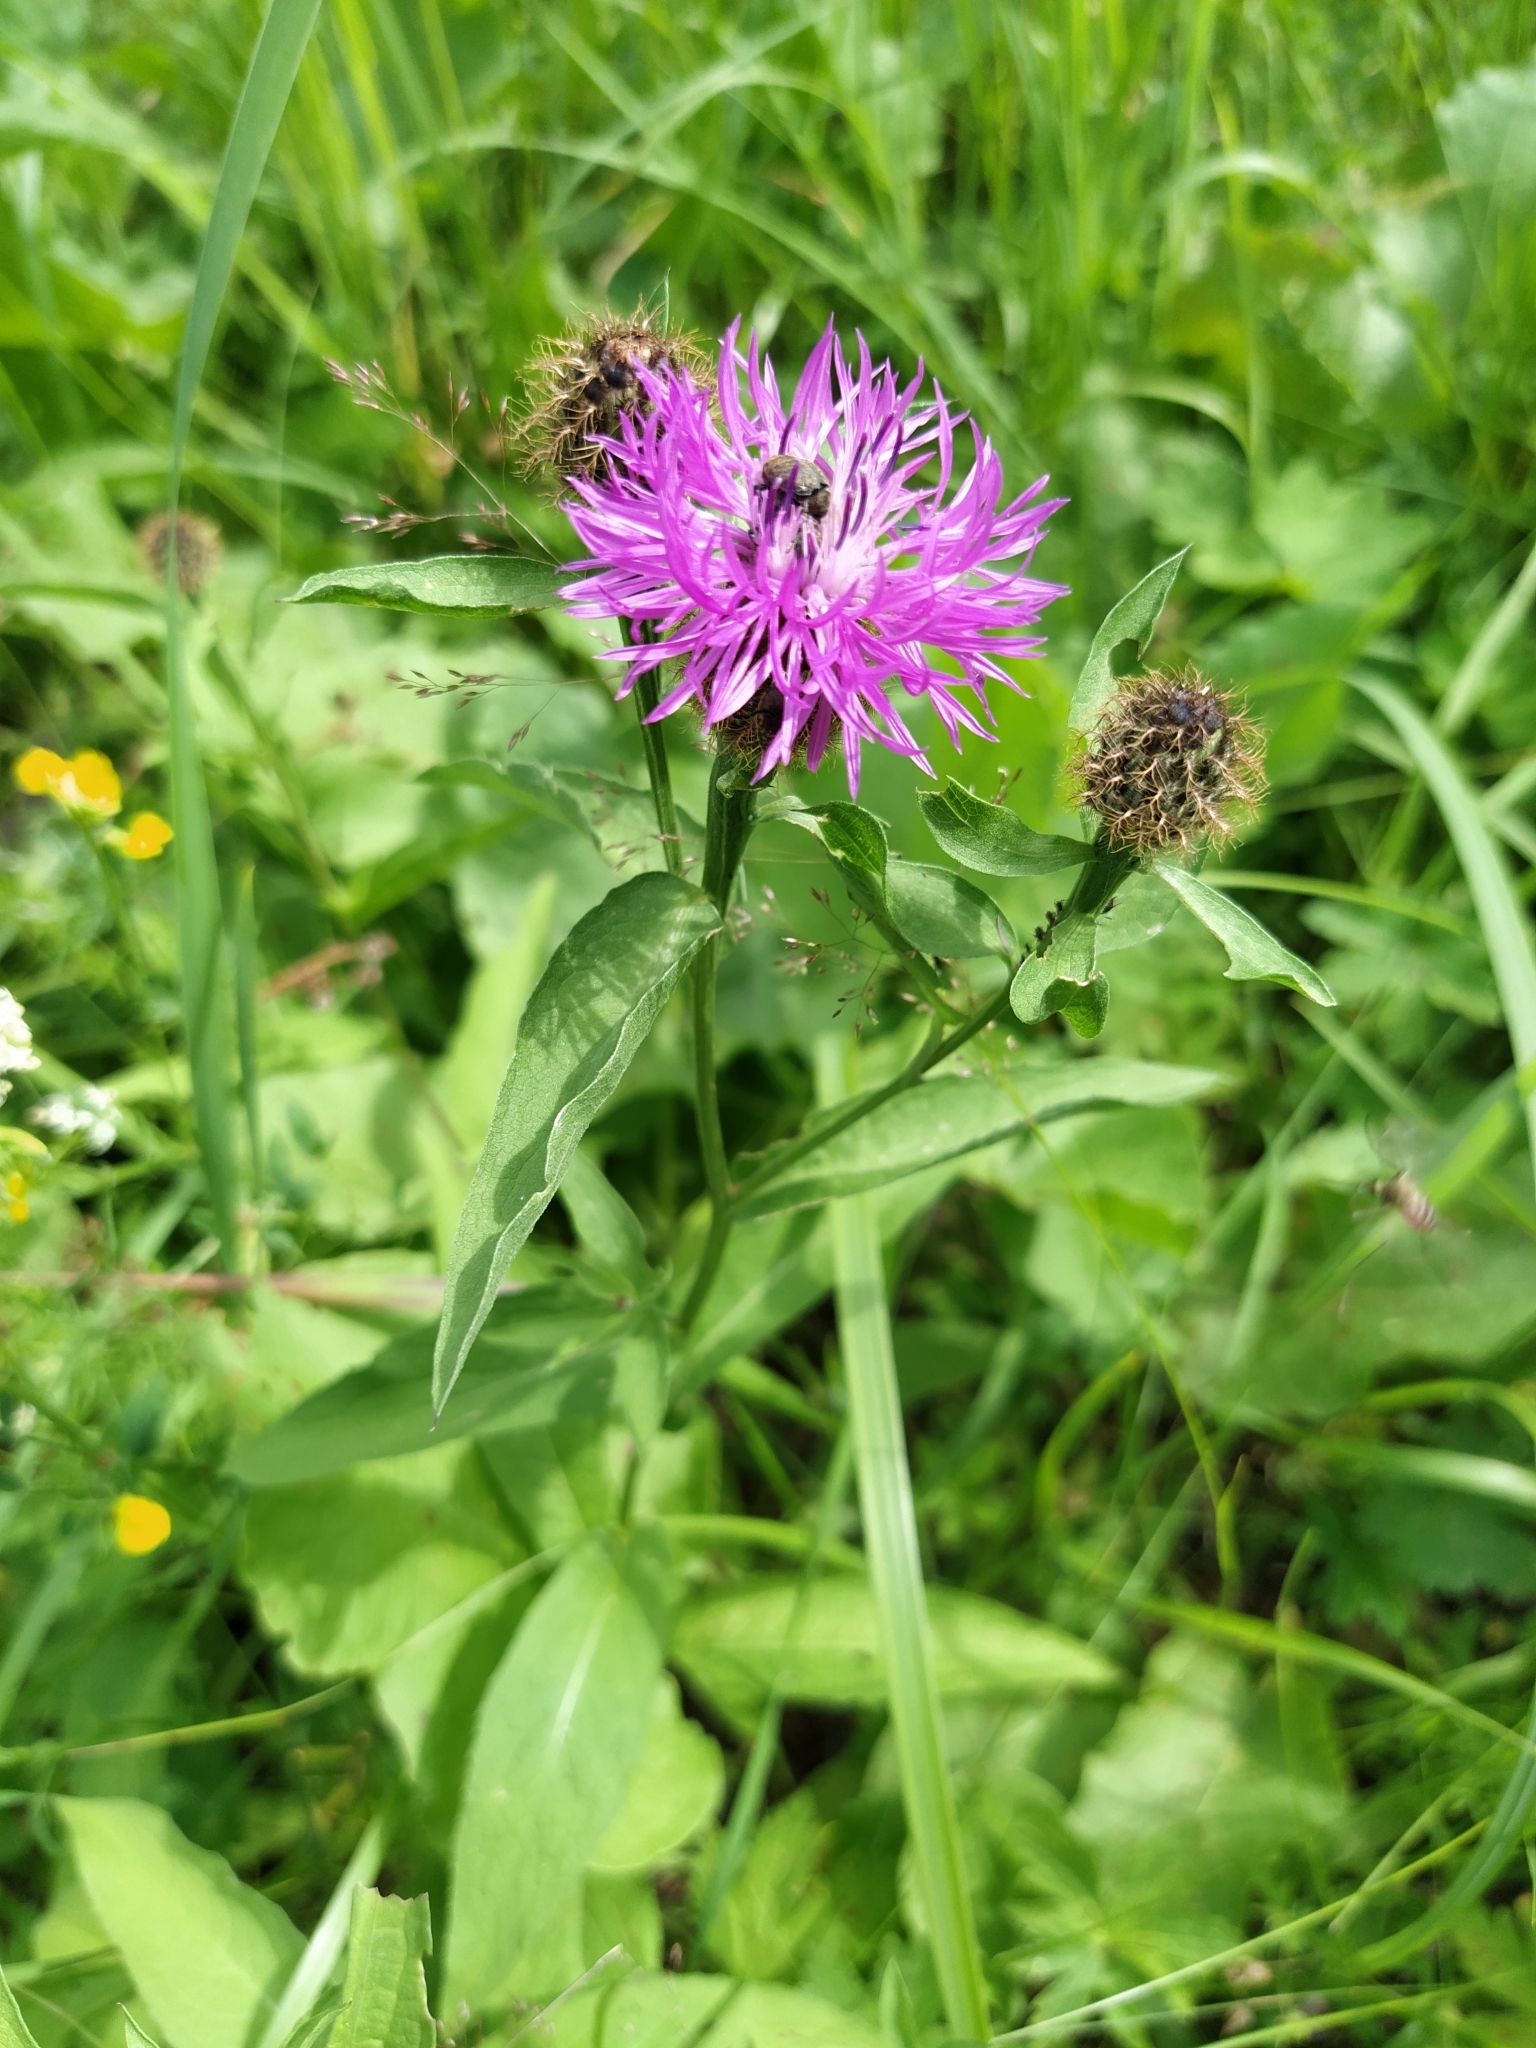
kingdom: Plantae
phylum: Tracheophyta
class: Magnoliopsida
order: Asterales
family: Asteraceae
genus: Centaurea
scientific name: Centaurea pseudophrygia
